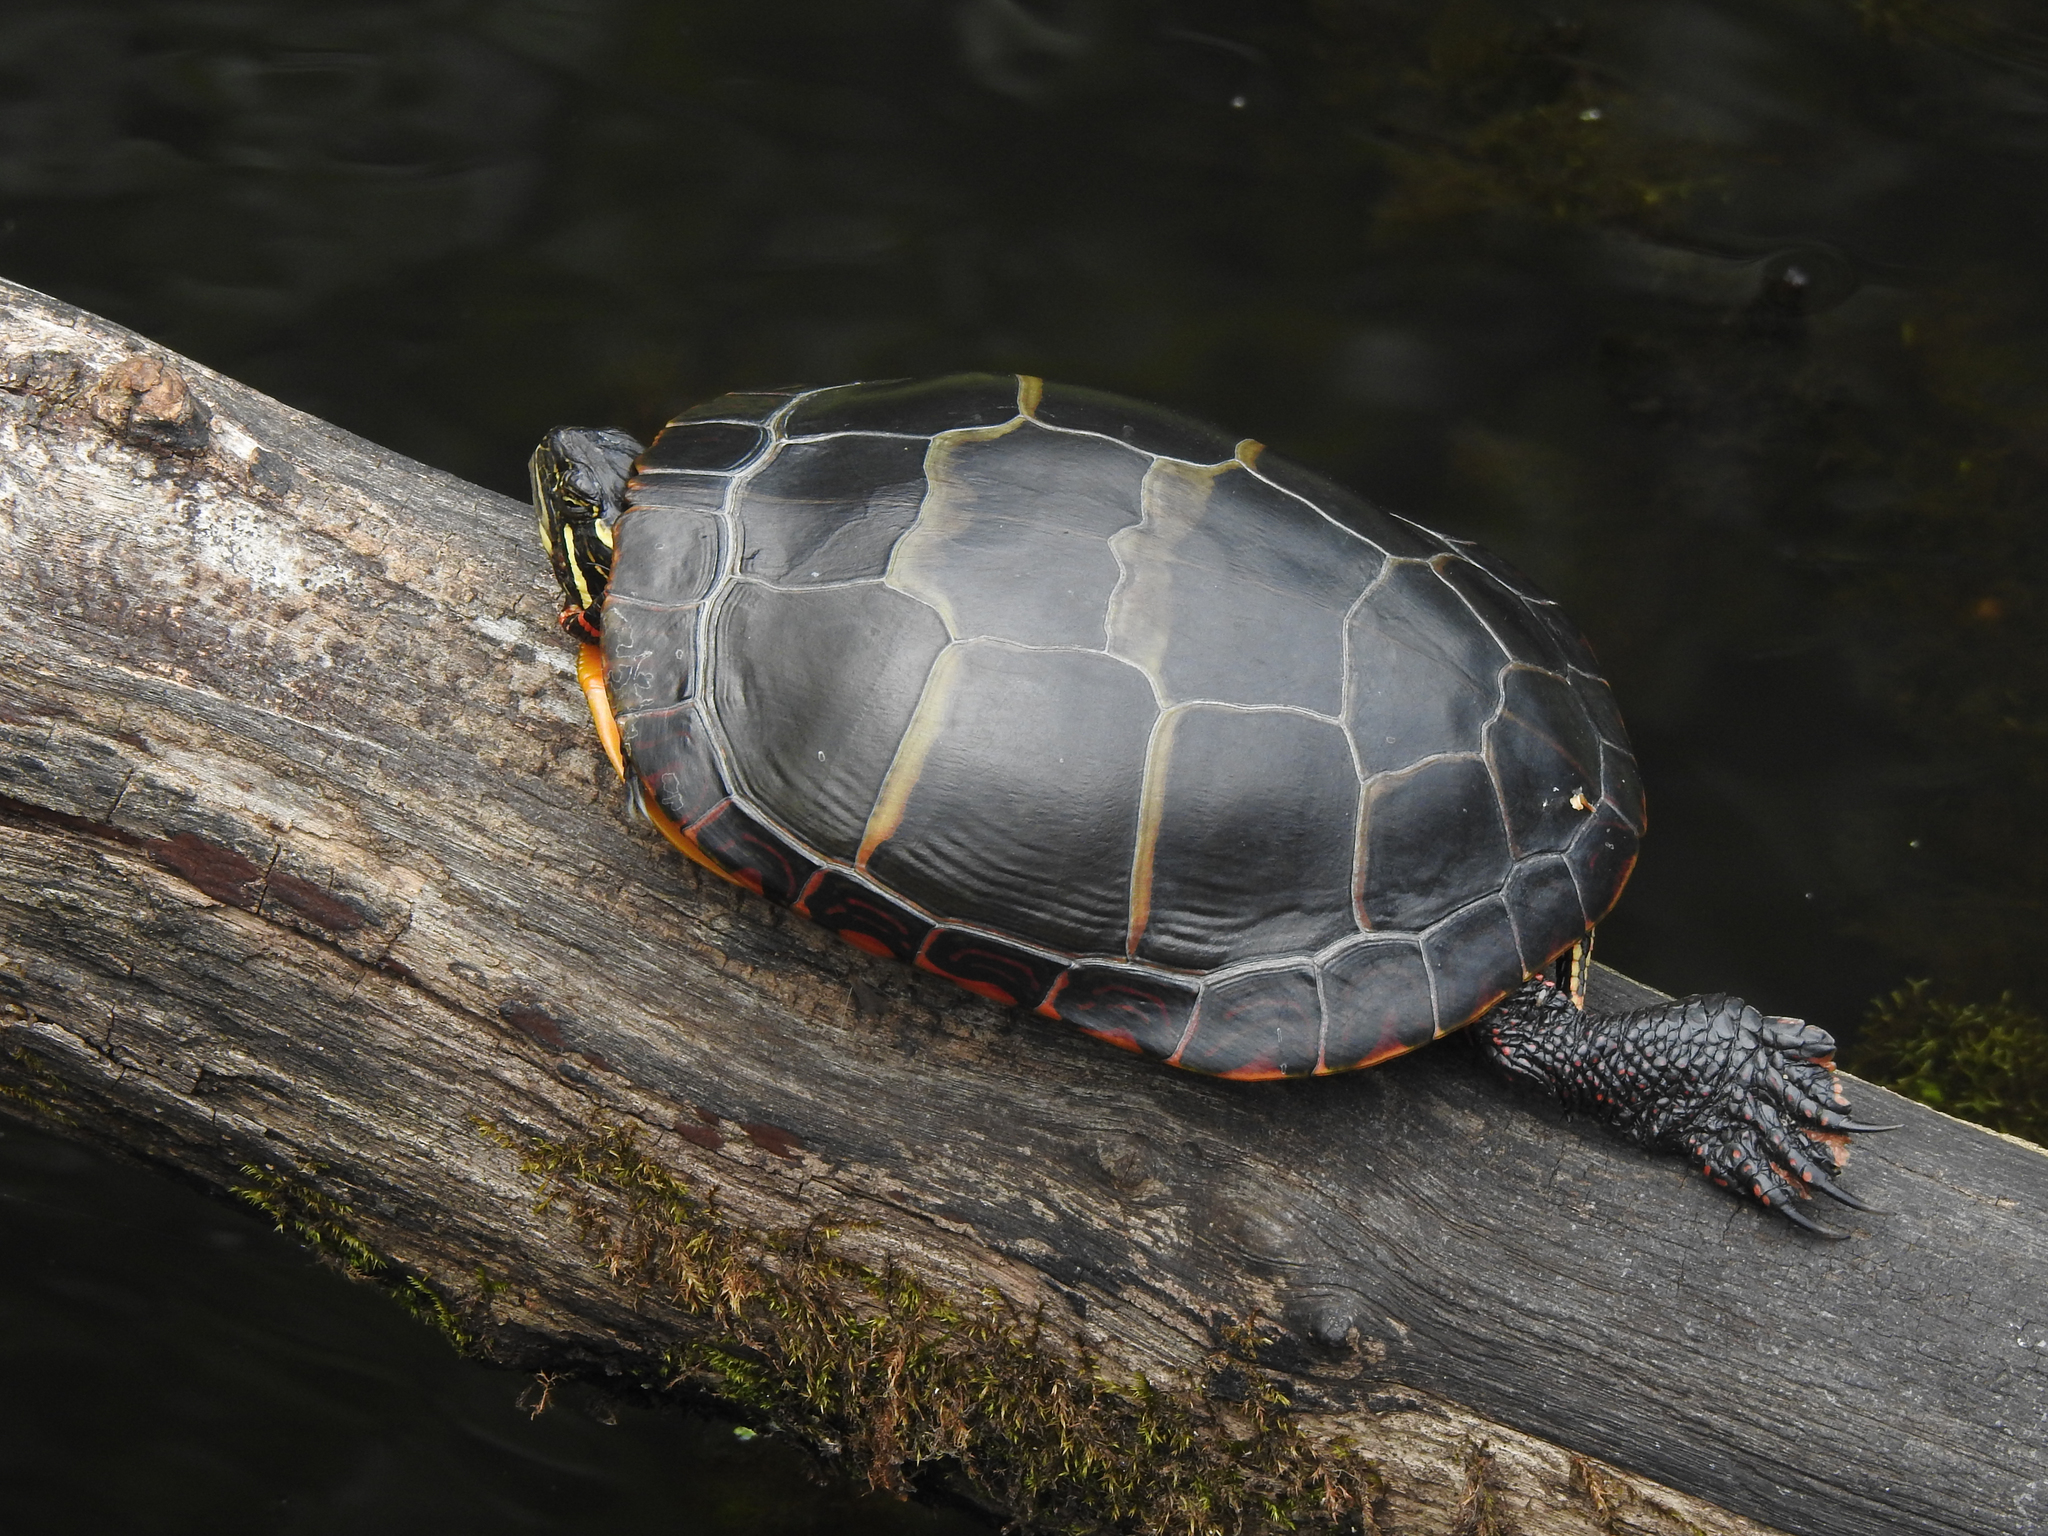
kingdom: Animalia
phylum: Chordata
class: Testudines
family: Emydidae
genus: Chrysemys
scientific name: Chrysemys picta
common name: Painted turtle
